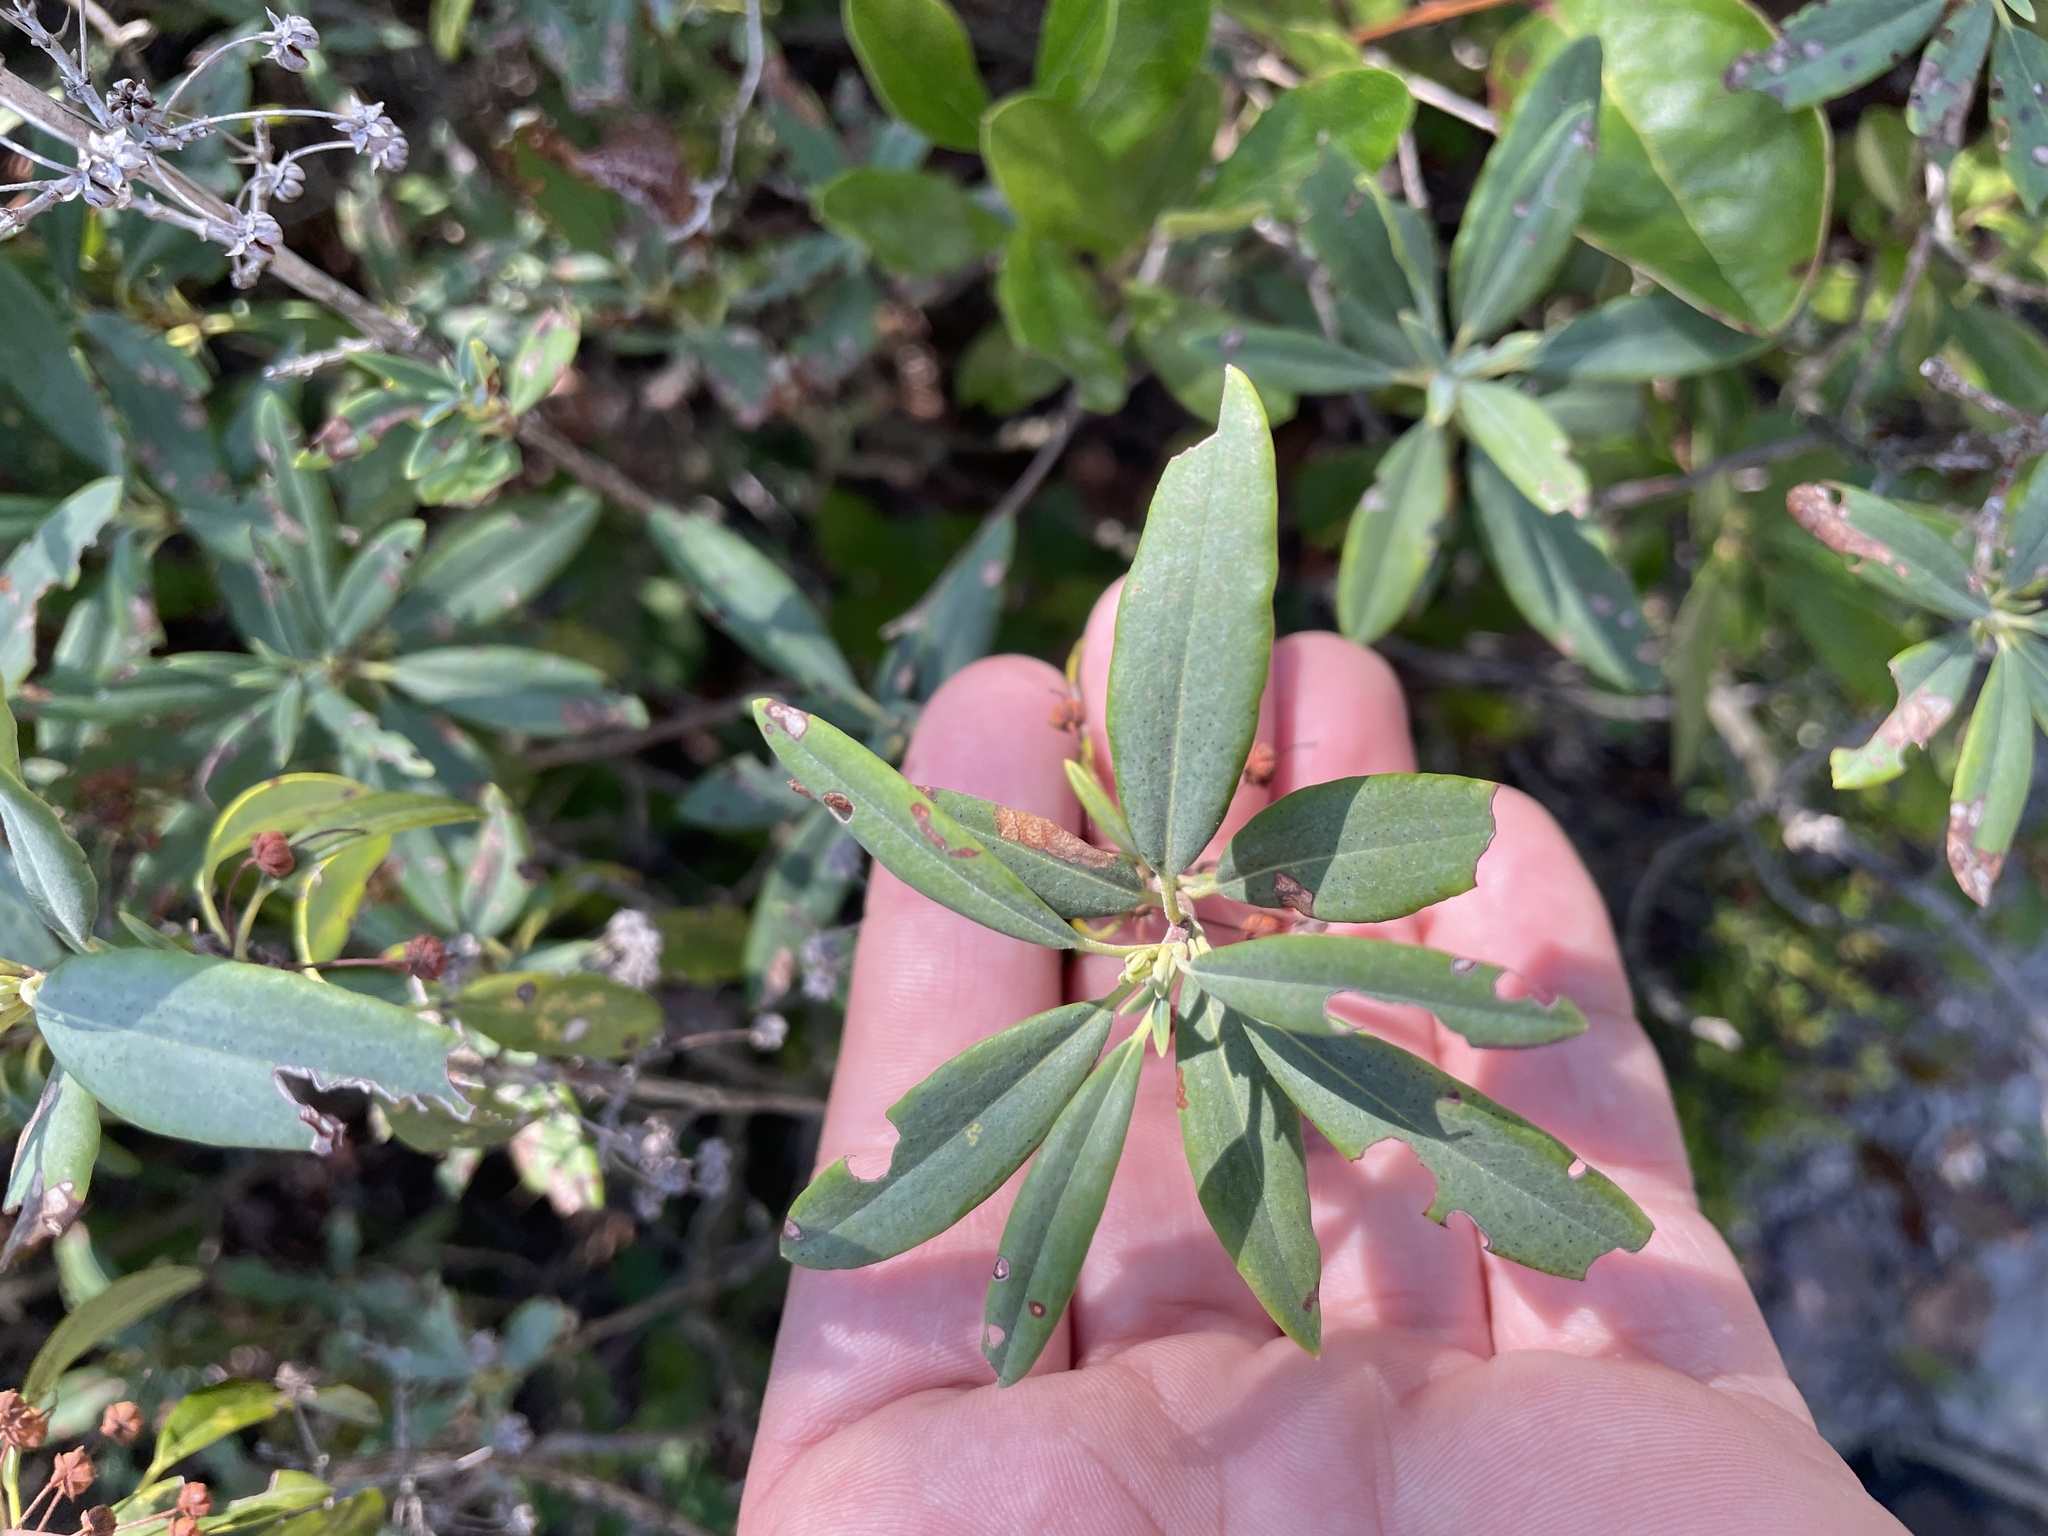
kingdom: Plantae
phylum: Tracheophyta
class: Magnoliopsida
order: Ericales
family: Ericaceae
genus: Kalmia
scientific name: Kalmia angustifolia
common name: Sheep-laurel
